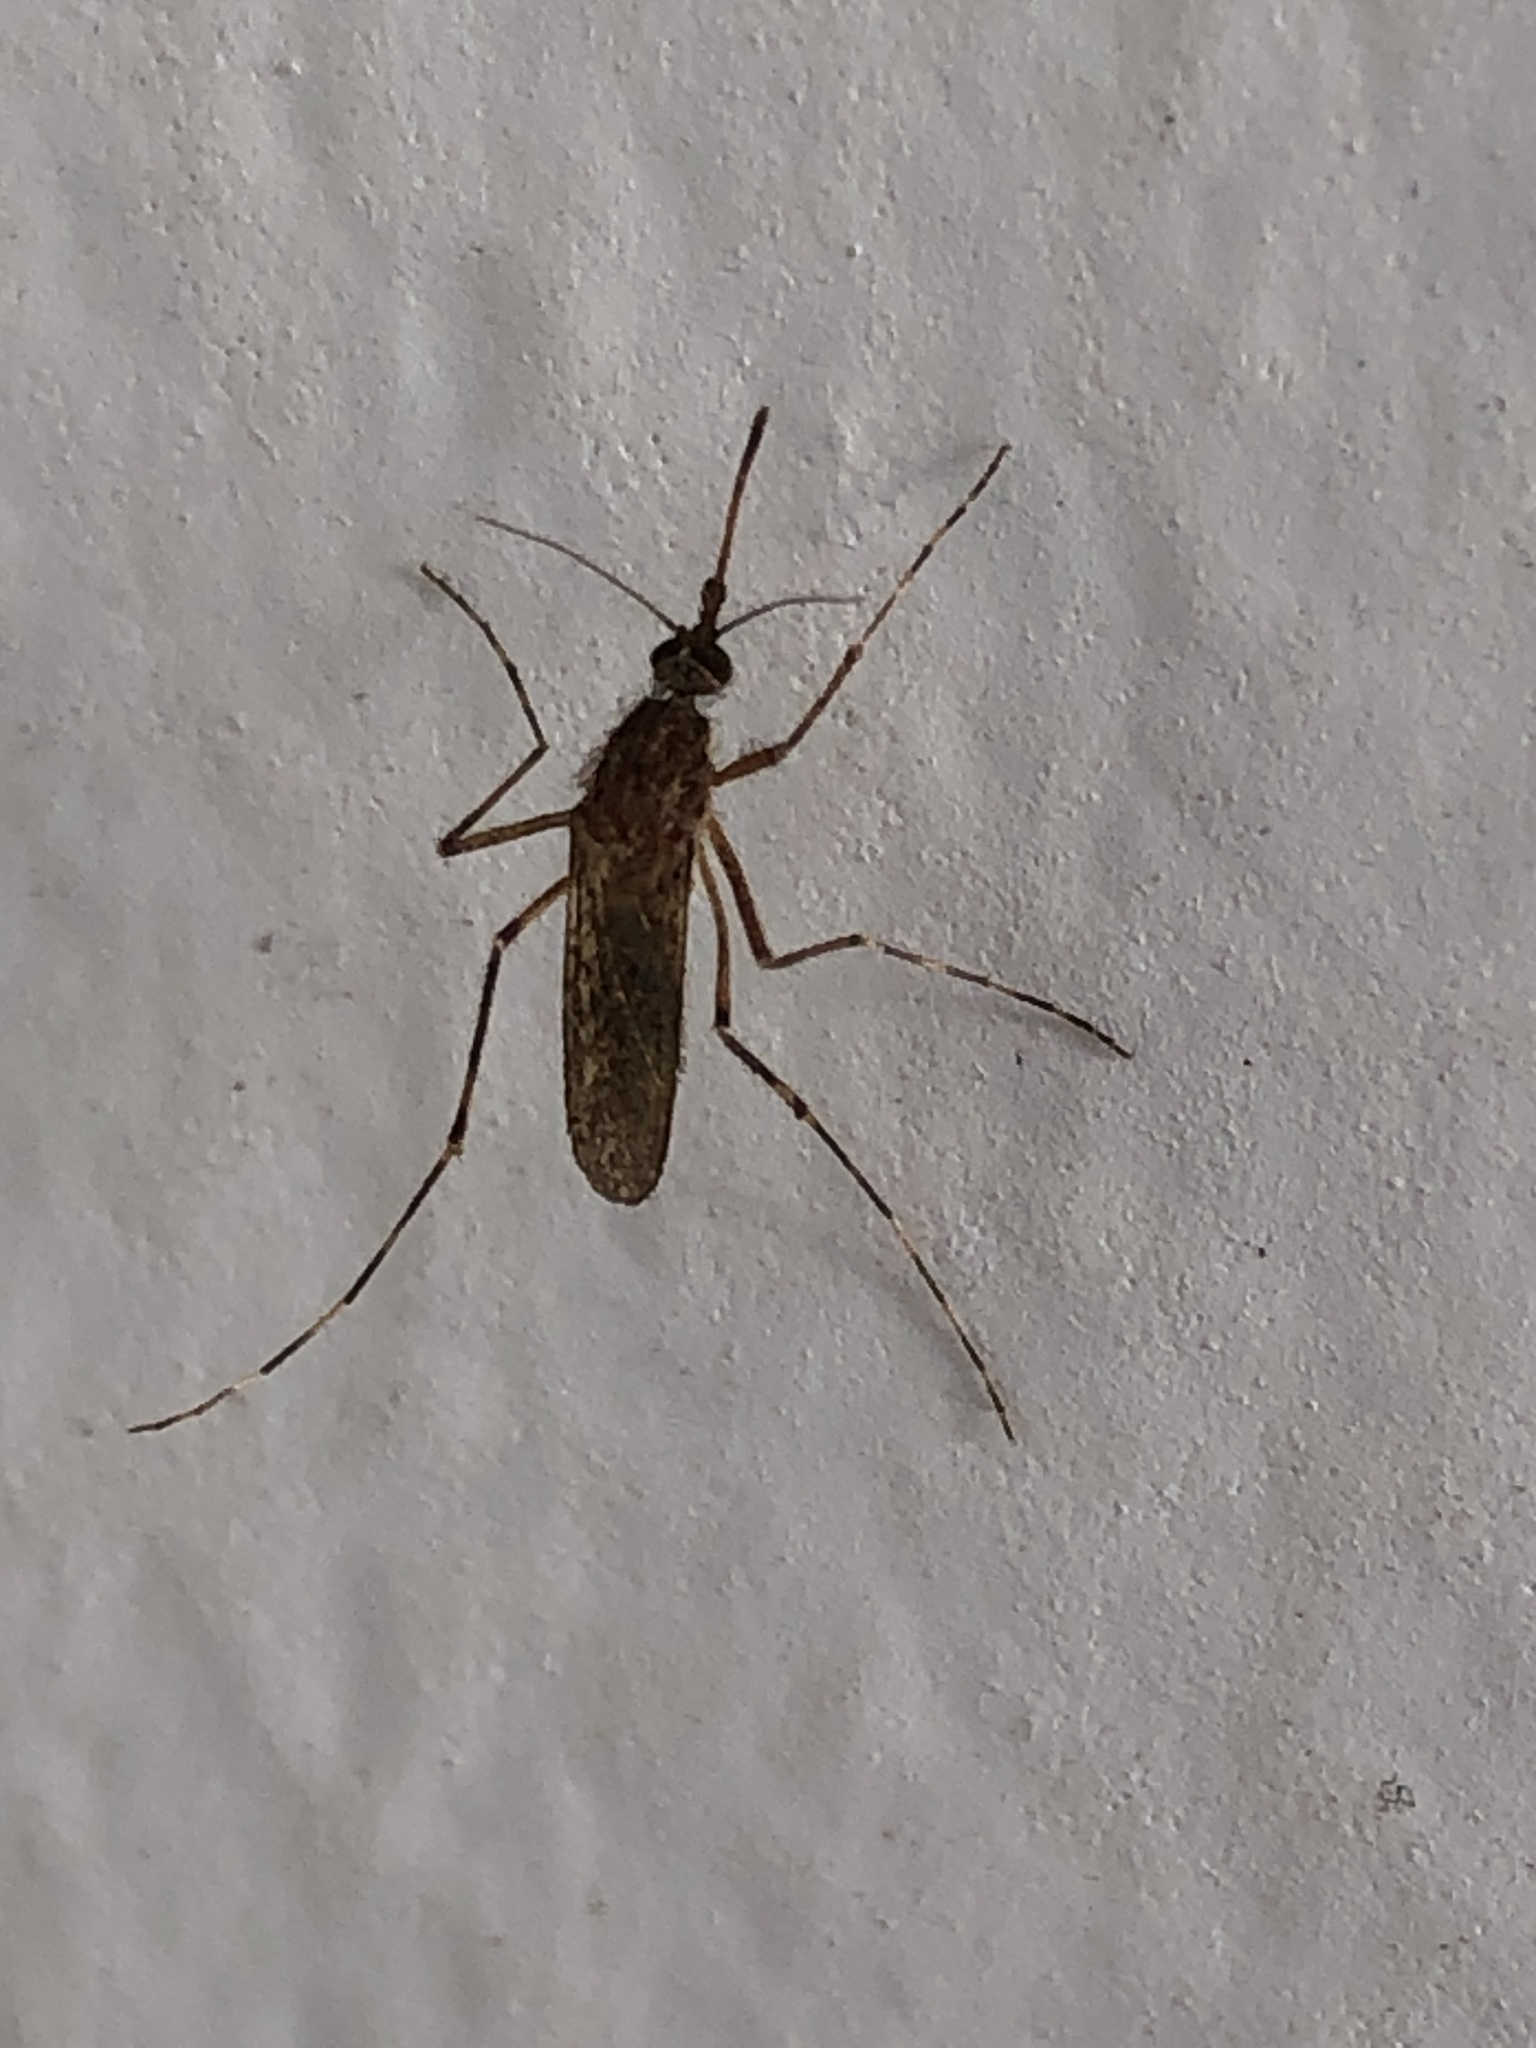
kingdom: Animalia
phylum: Arthropoda
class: Insecta
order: Diptera
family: Culicidae
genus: Coquillettidia
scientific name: Coquillettidia perturbans
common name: Cattail mosquito
